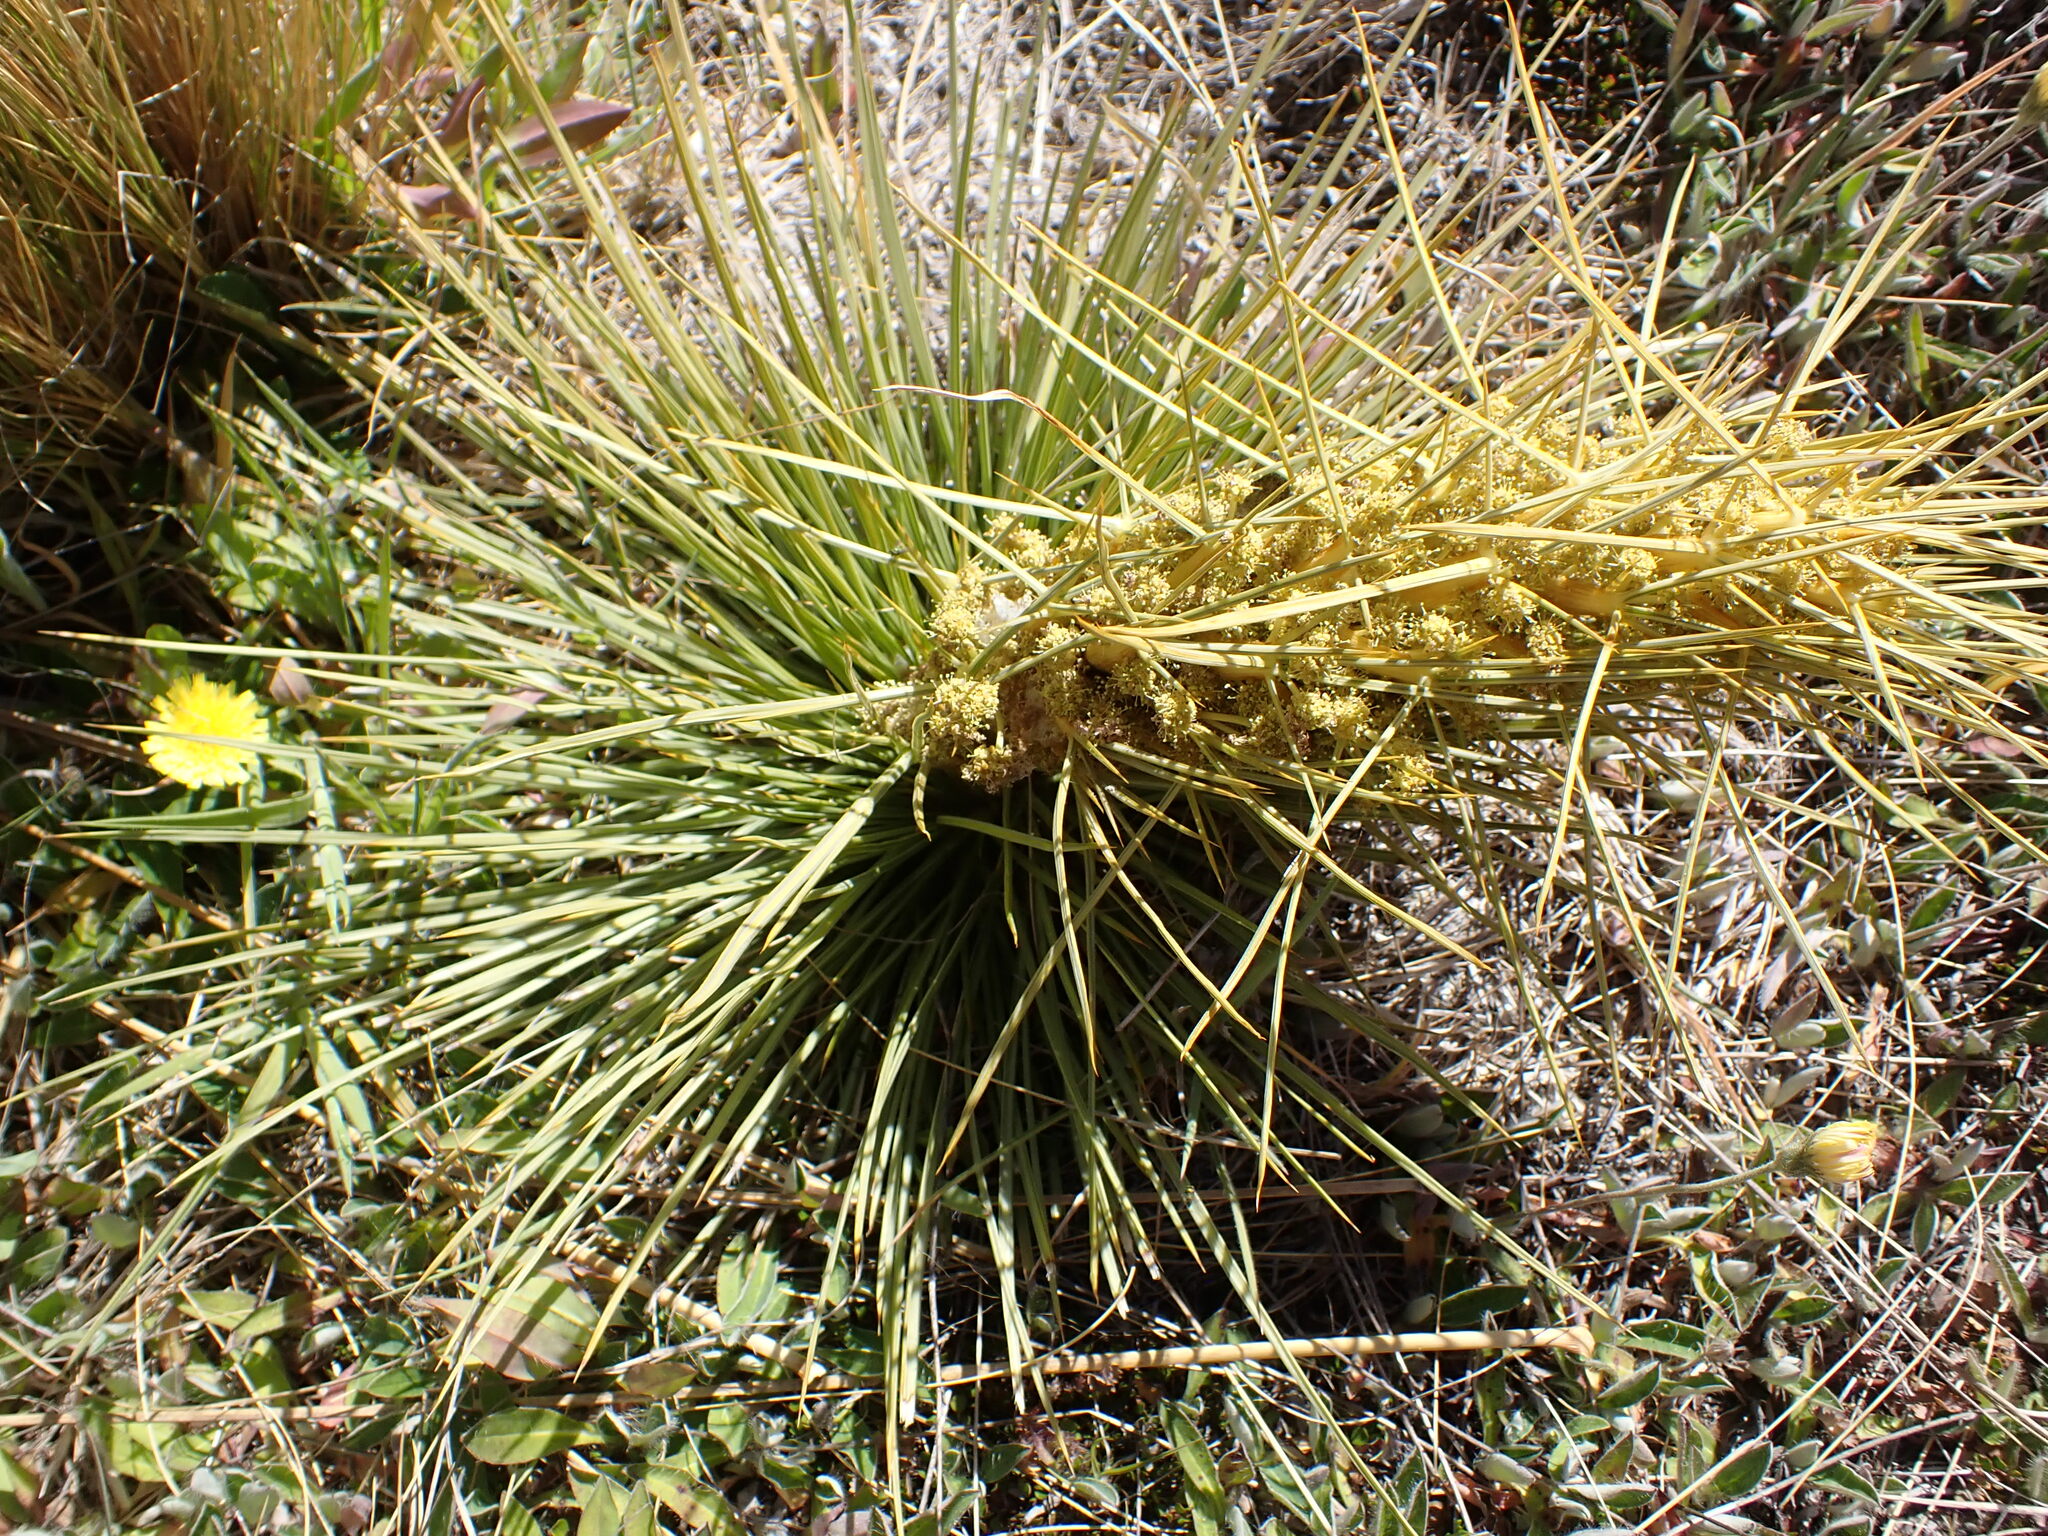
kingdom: Plantae
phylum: Tracheophyta
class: Magnoliopsida
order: Apiales
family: Apiaceae
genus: Aciphylla
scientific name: Aciphylla subflabellata
